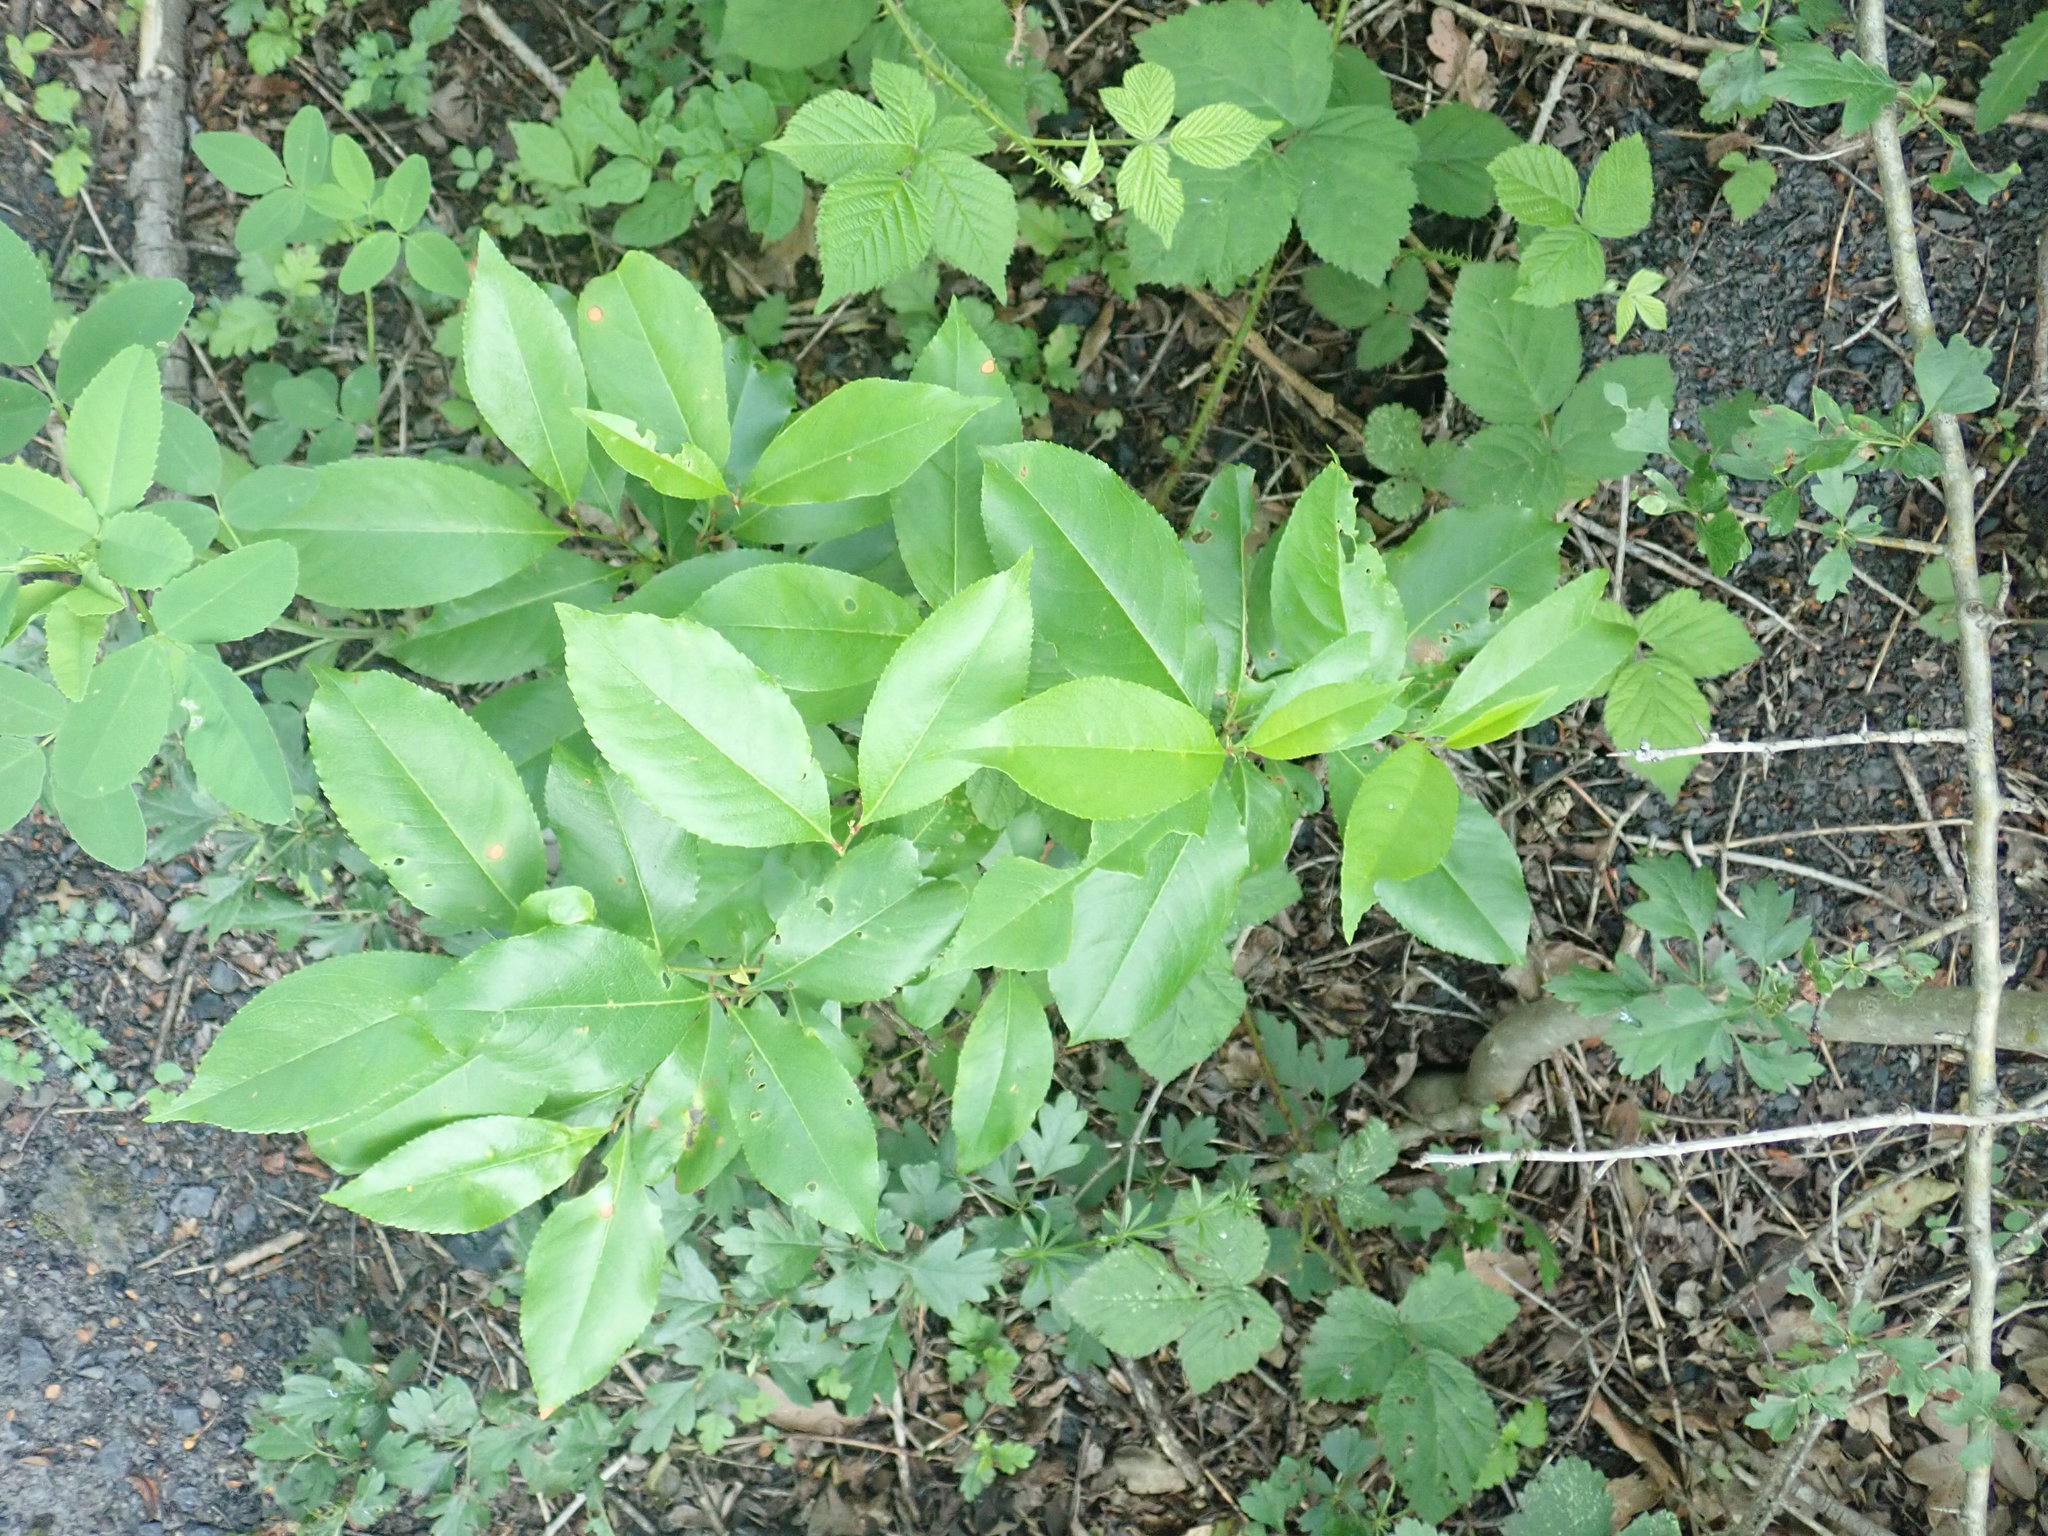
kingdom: Plantae
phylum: Tracheophyta
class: Magnoliopsida
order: Rosales
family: Rosaceae
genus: Prunus
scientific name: Prunus serotina
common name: Black cherry
